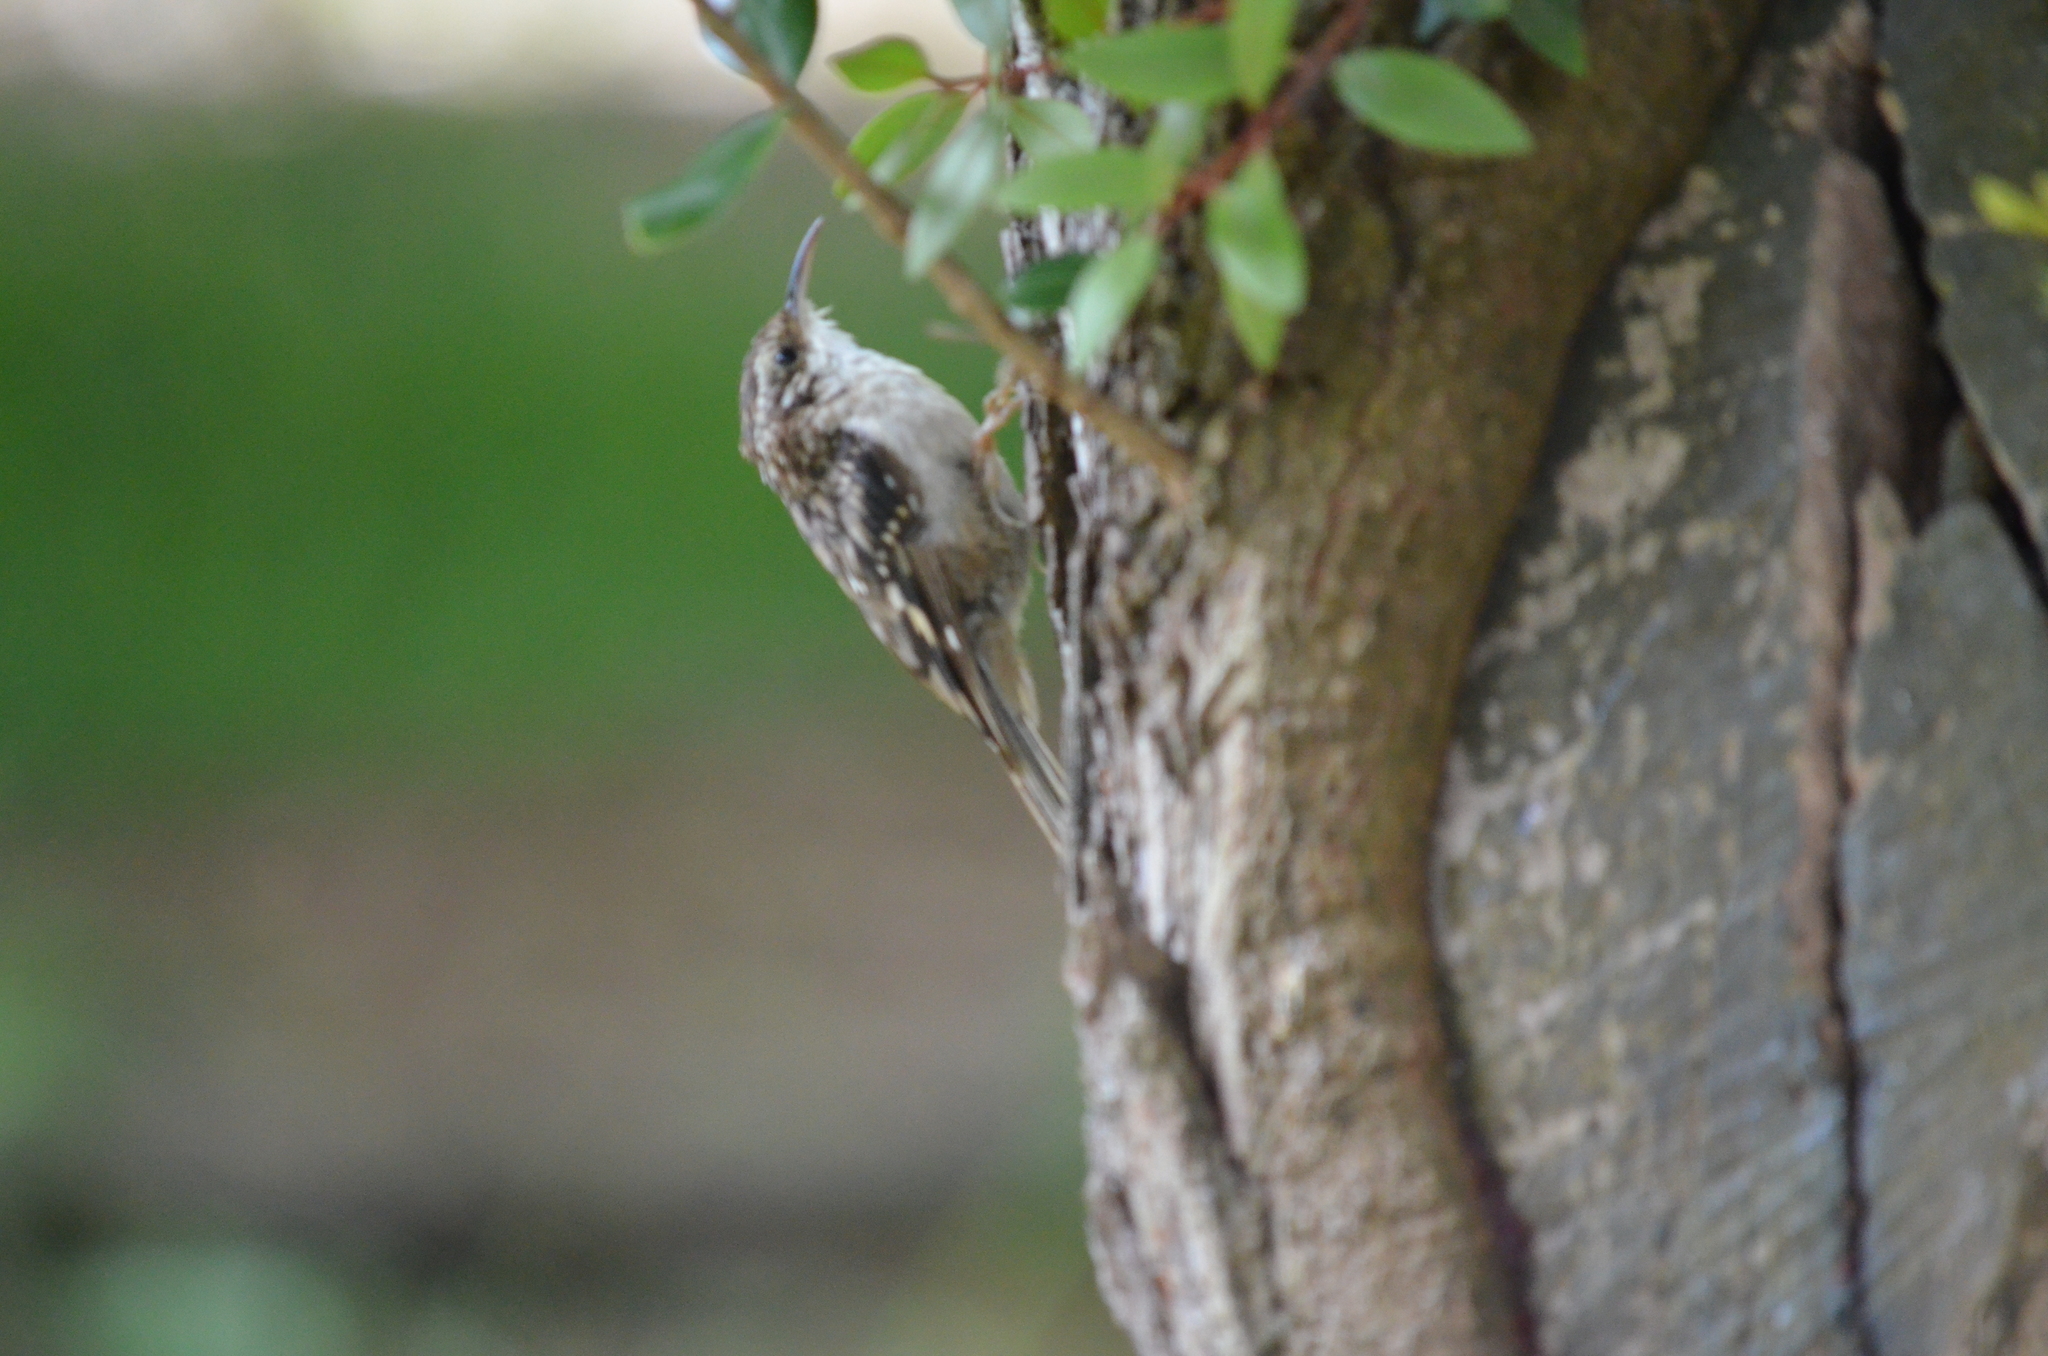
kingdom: Animalia
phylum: Chordata
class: Aves
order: Passeriformes
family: Certhiidae
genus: Certhia
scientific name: Certhia americana
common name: Brown creeper
